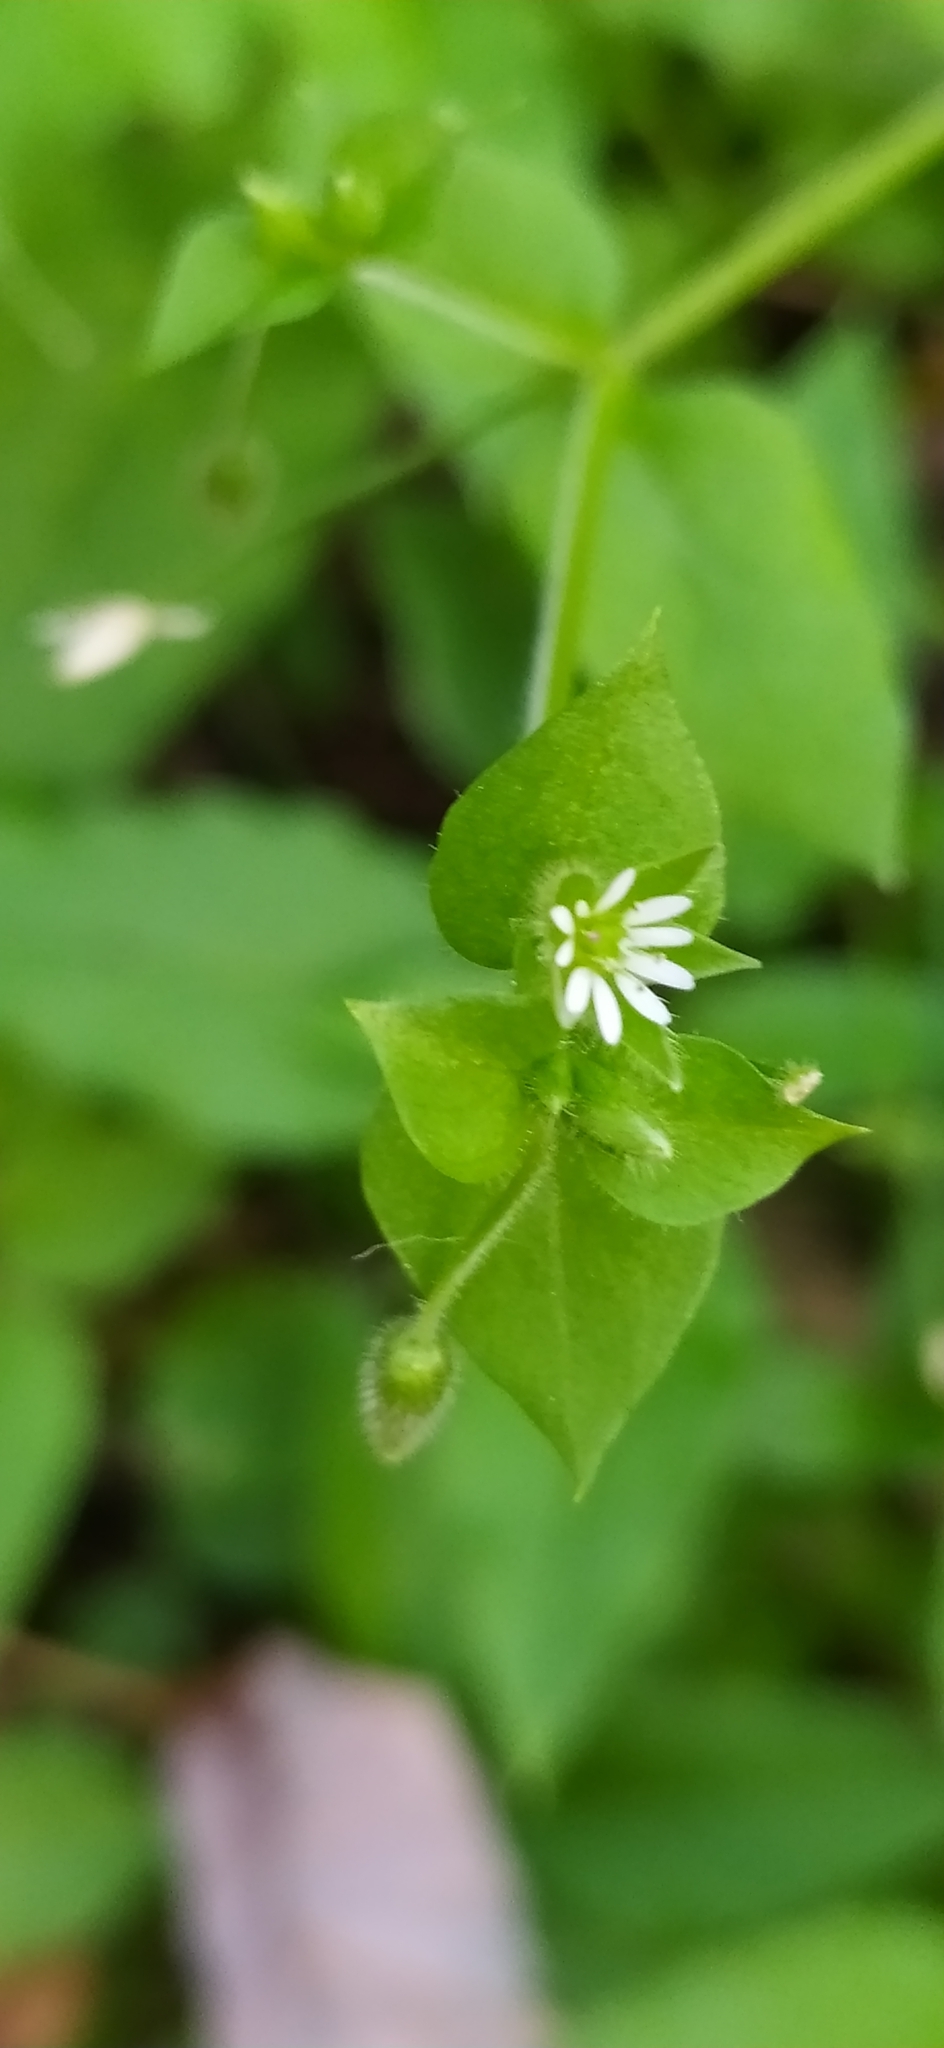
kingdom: Plantae
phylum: Tracheophyta
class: Magnoliopsida
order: Caryophyllales
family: Caryophyllaceae
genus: Stellaria
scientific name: Stellaria media
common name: Common chickweed
